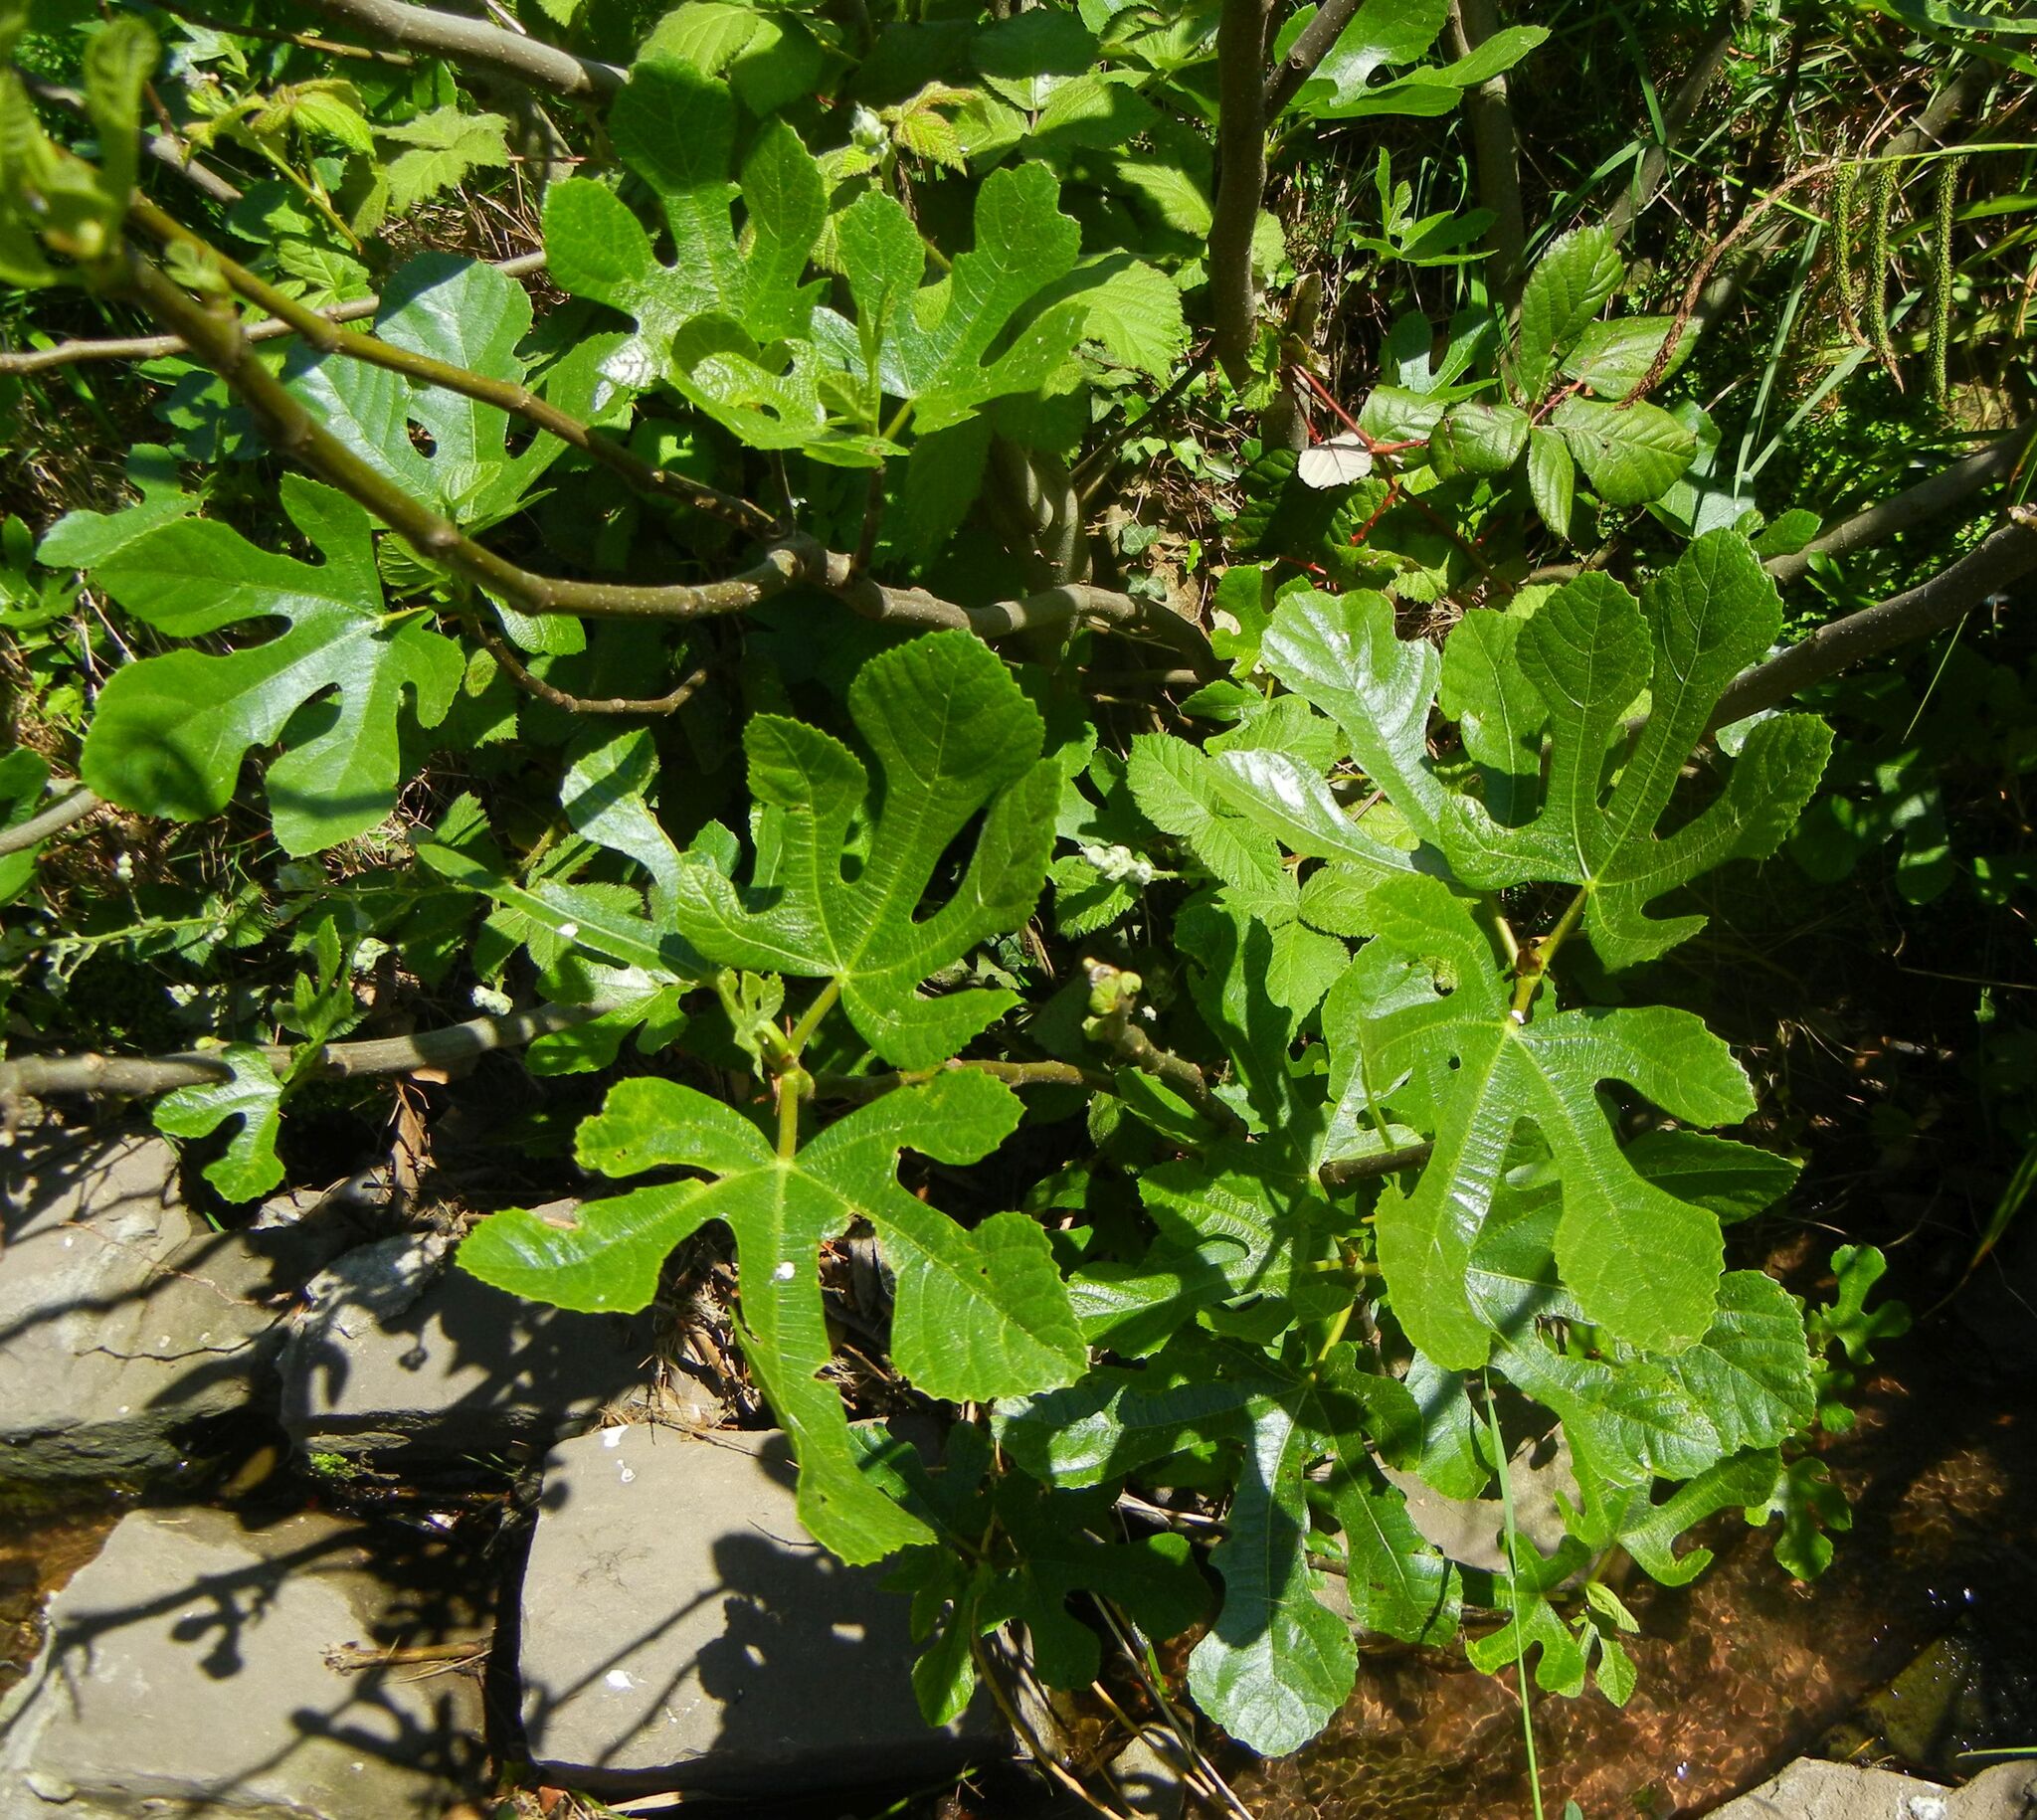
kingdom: Plantae
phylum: Tracheophyta
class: Magnoliopsida
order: Rosales
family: Moraceae
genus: Ficus
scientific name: Ficus carica
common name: Fig
